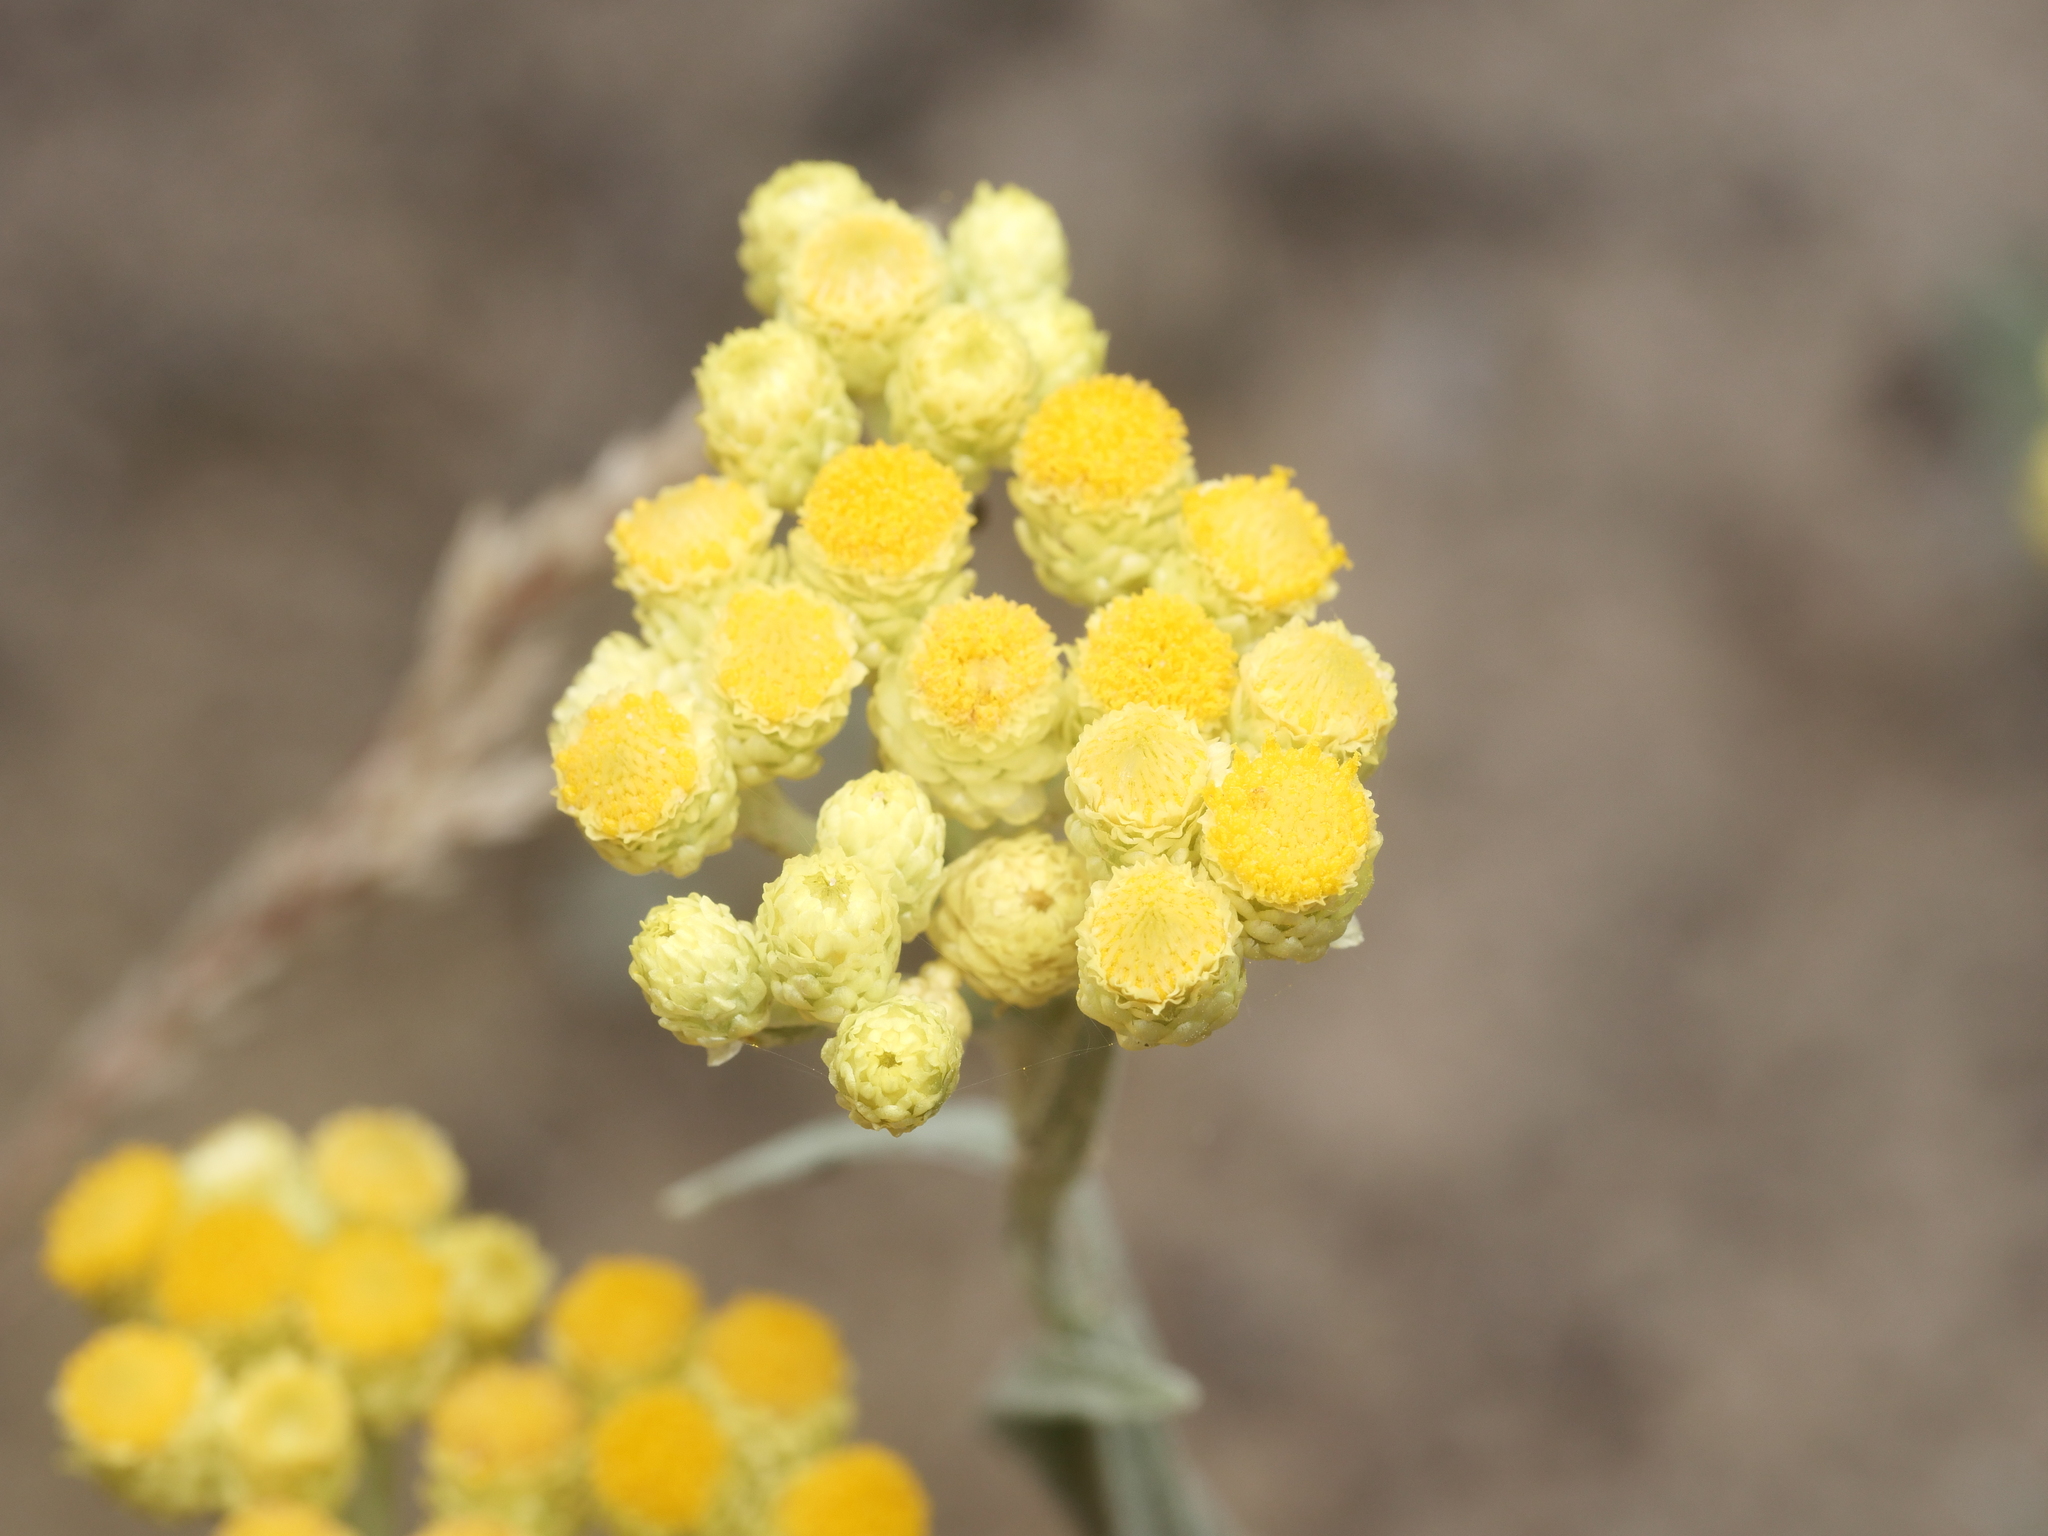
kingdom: Plantae
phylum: Tracheophyta
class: Magnoliopsida
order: Asterales
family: Asteraceae
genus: Helichrysum
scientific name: Helichrysum arenarium
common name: Strawflower
